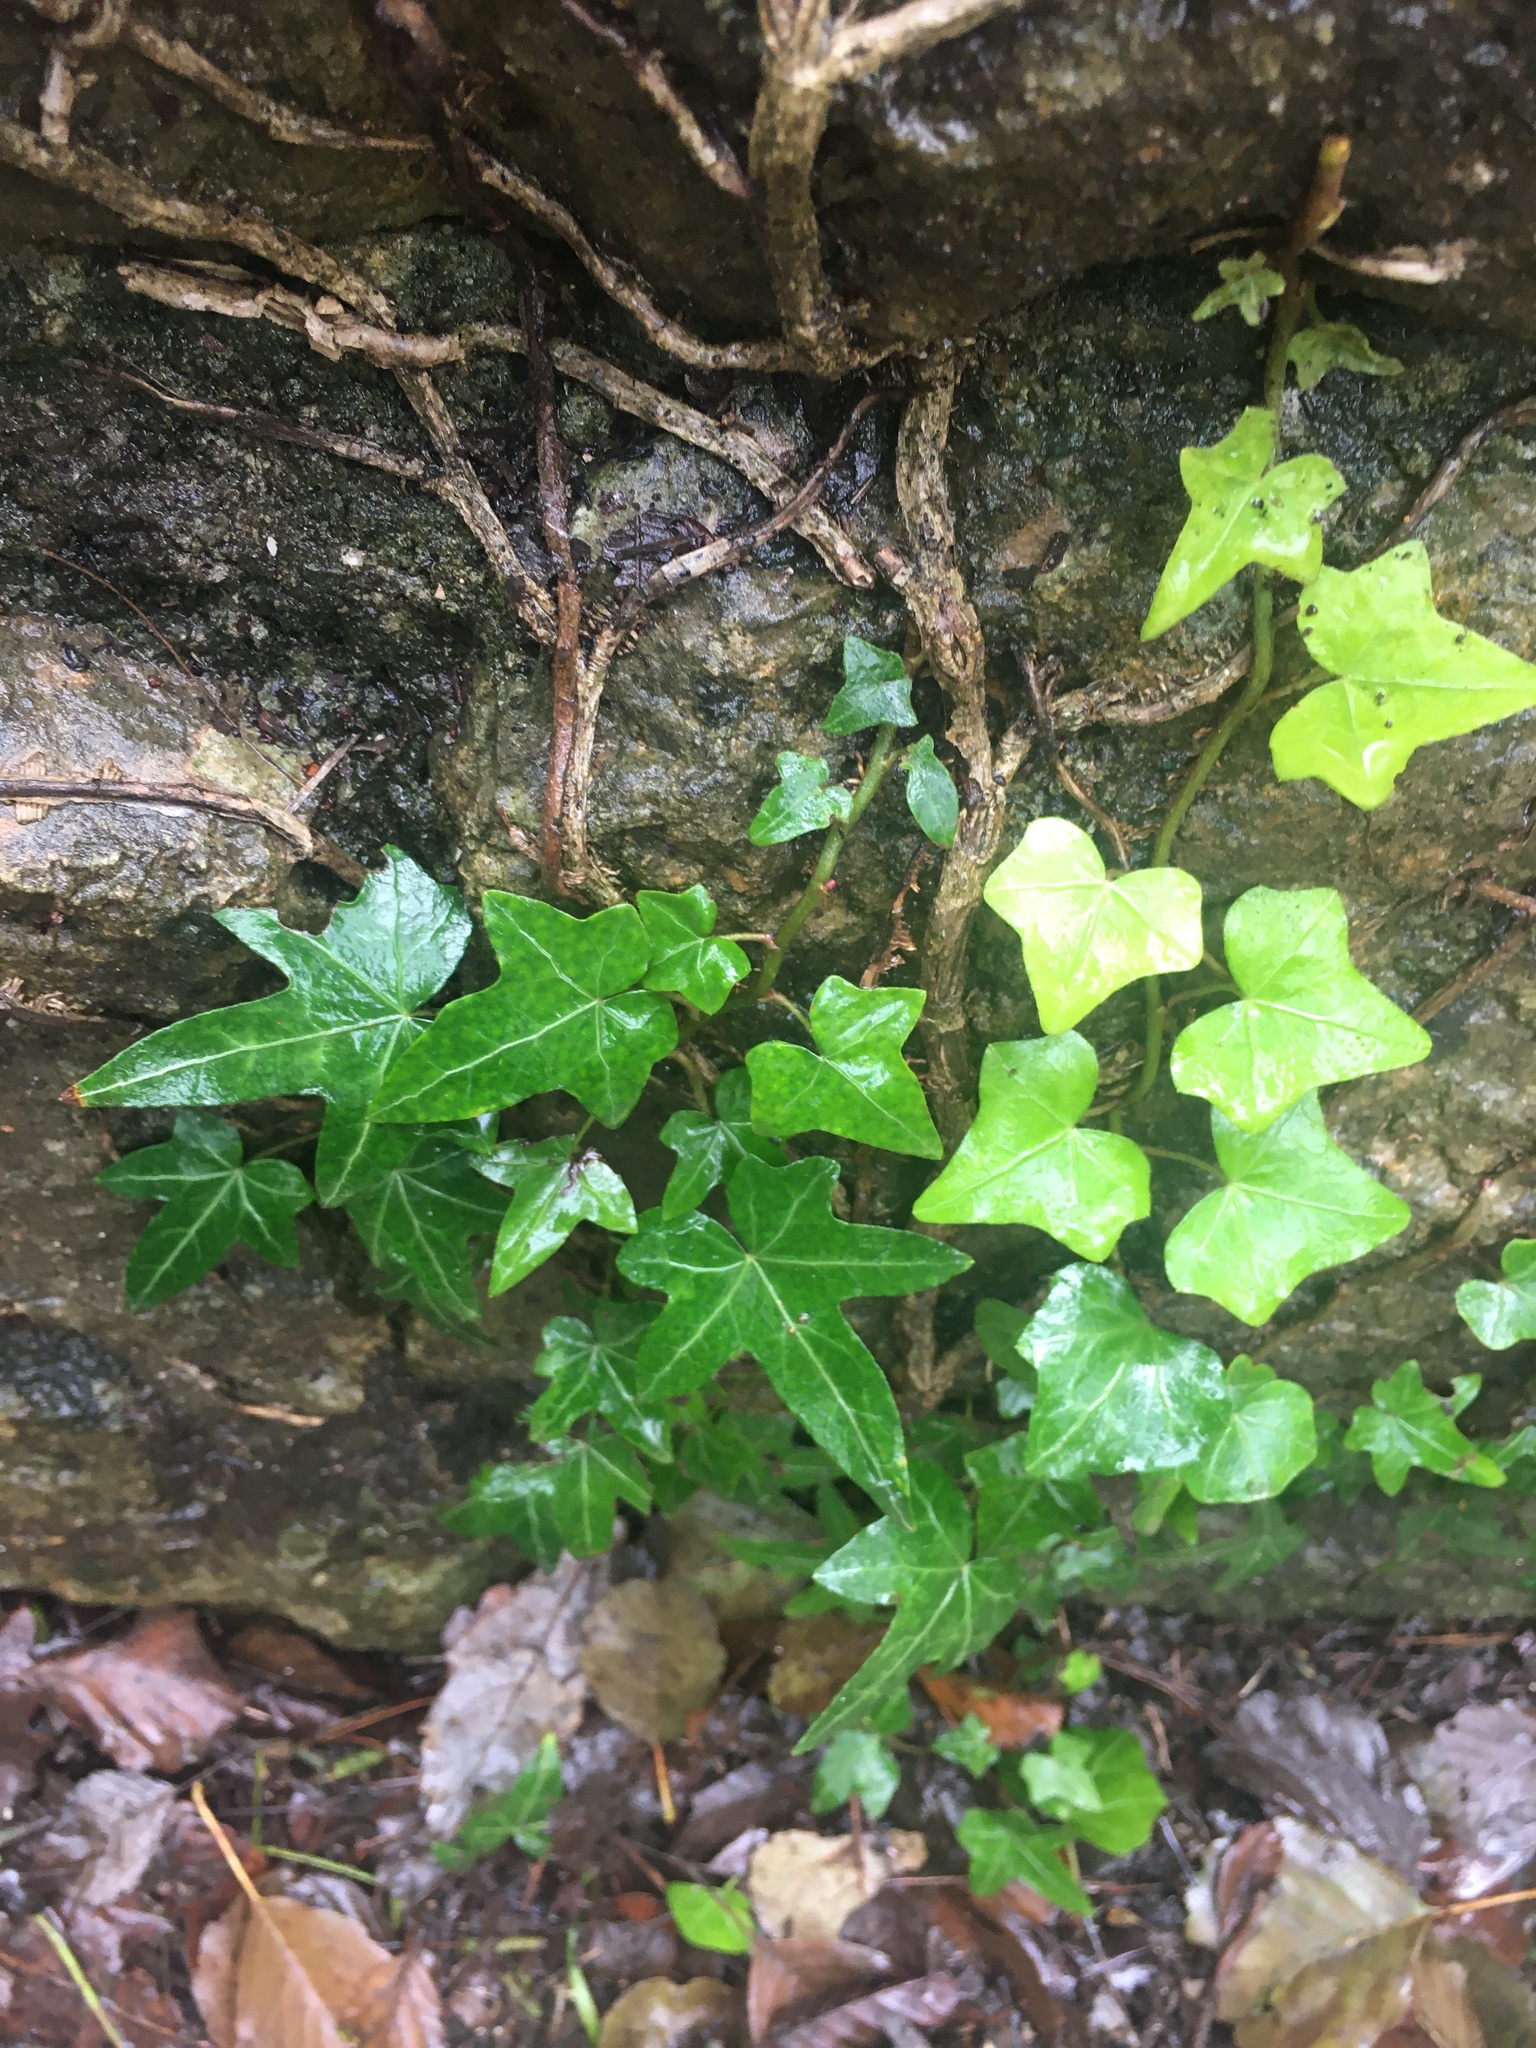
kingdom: Plantae
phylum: Tracheophyta
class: Magnoliopsida
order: Apiales
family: Araliaceae
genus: Hedera
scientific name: Hedera helix
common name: Ivy
